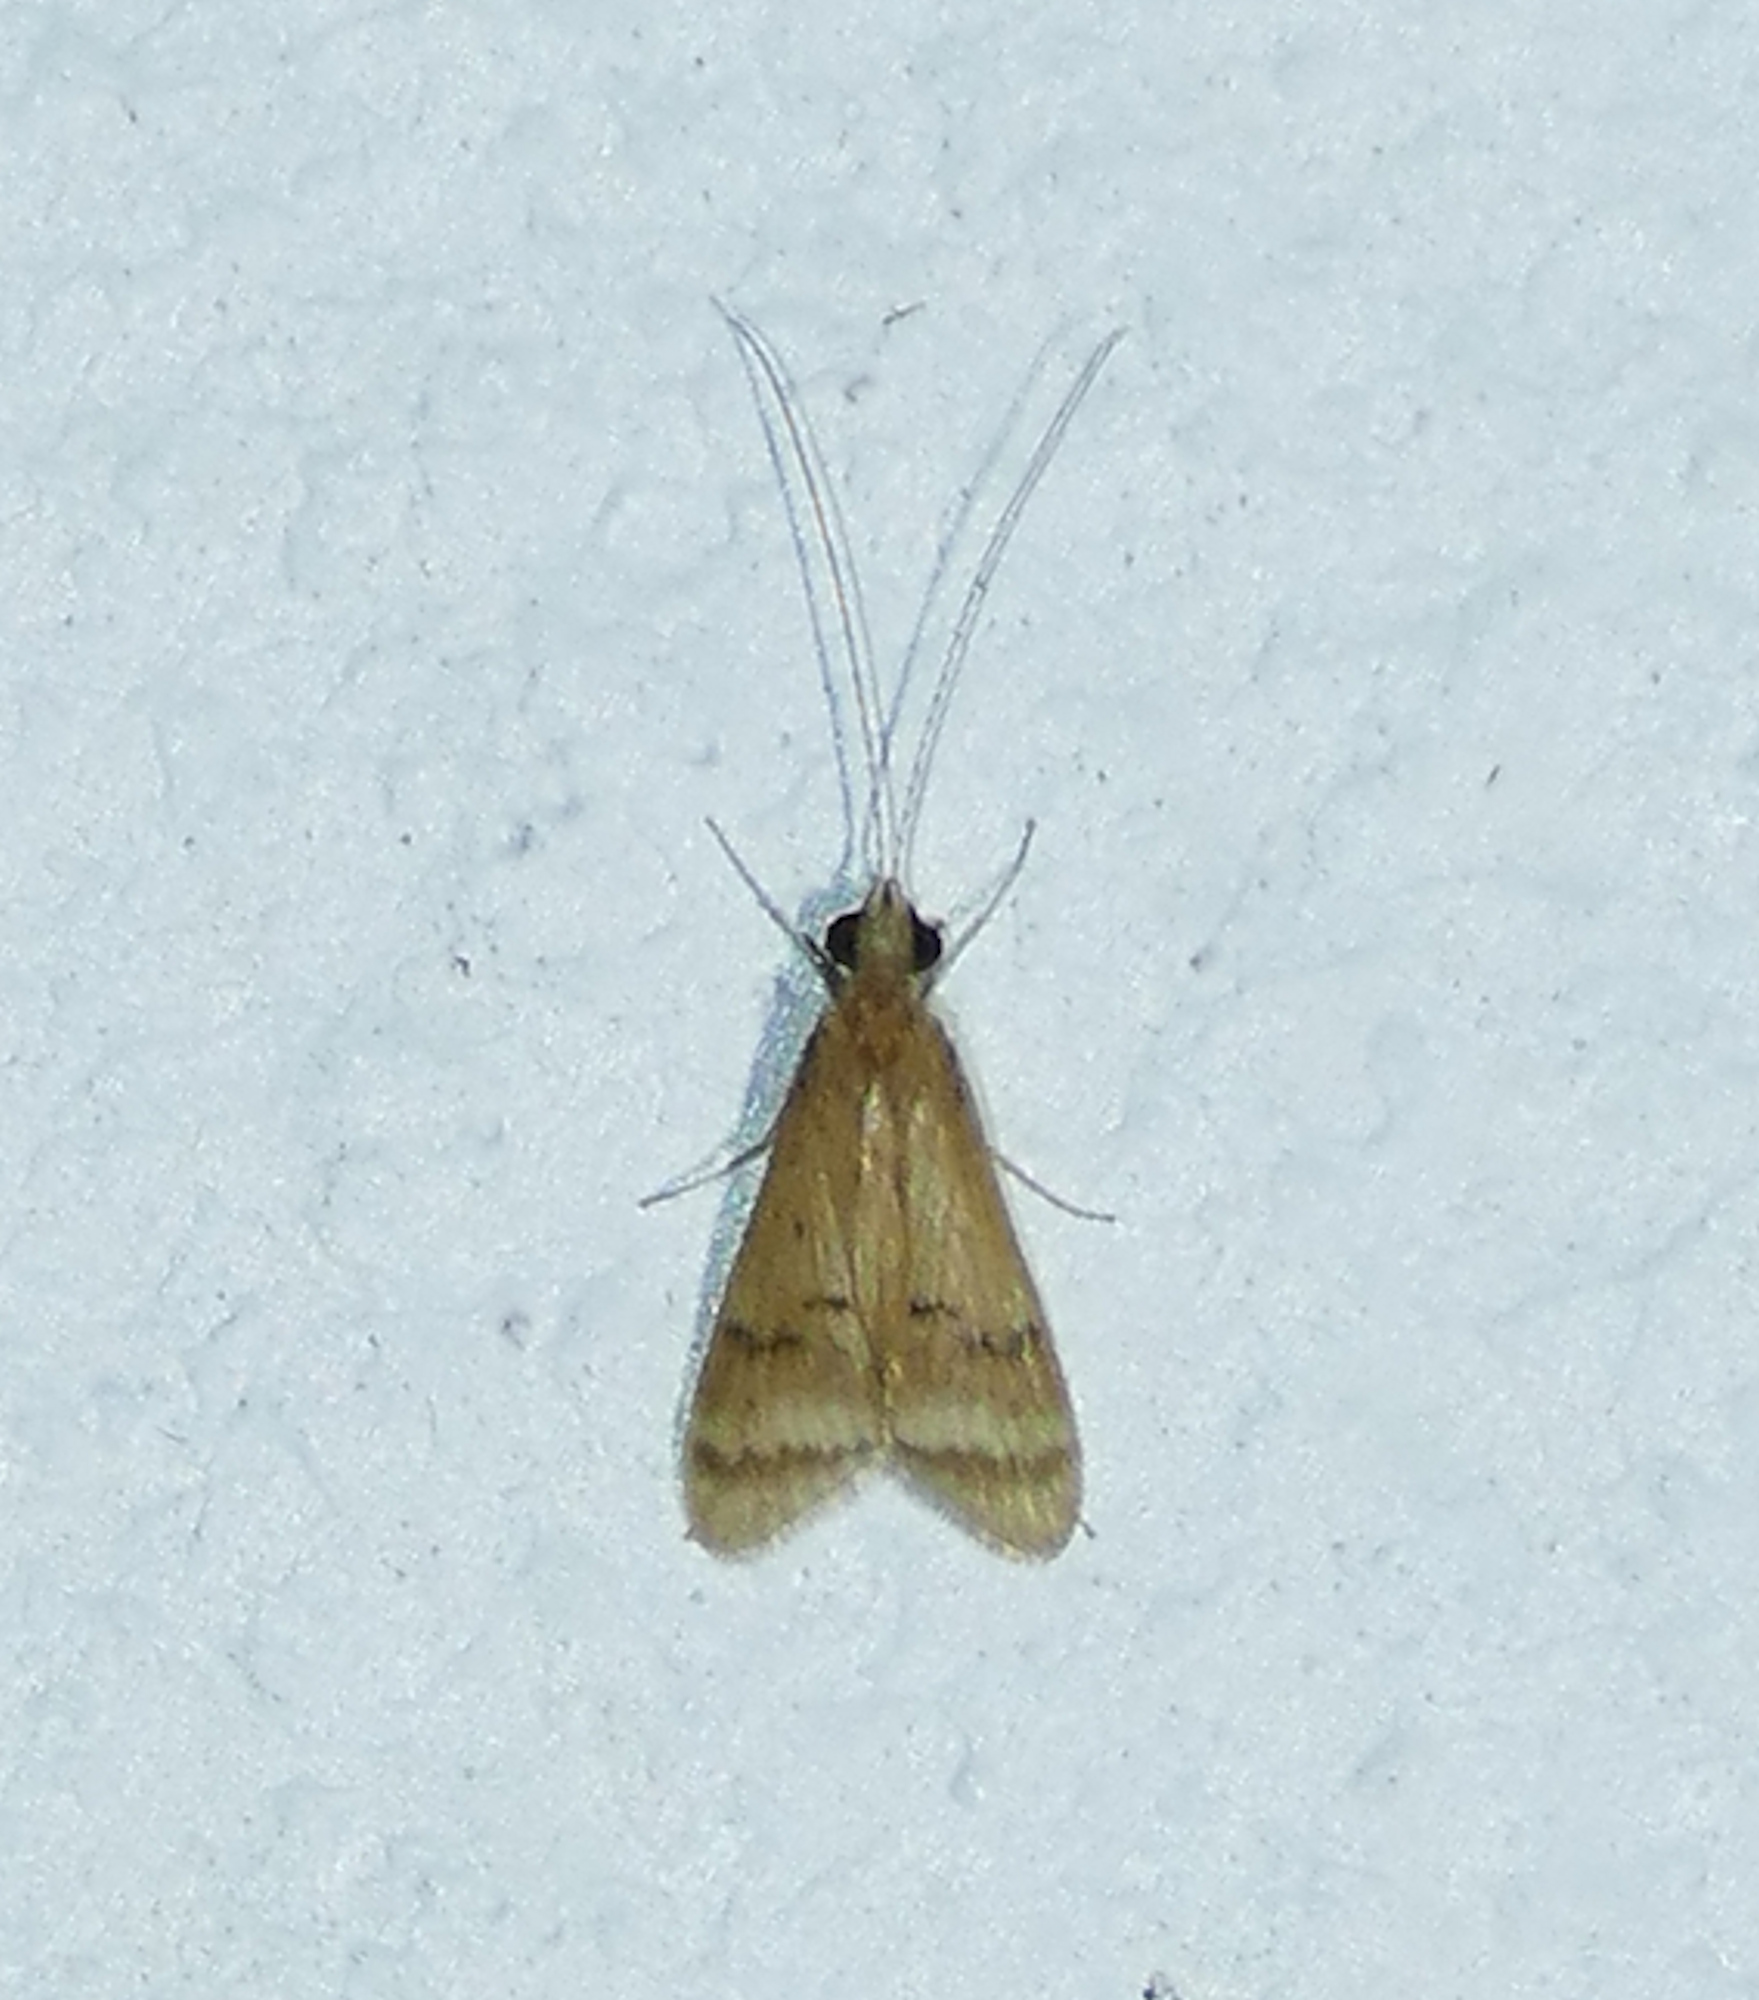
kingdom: Animalia
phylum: Arthropoda
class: Insecta
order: Trichoptera
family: Hydropsychidae
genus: Smicridea
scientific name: Smicridea signata
